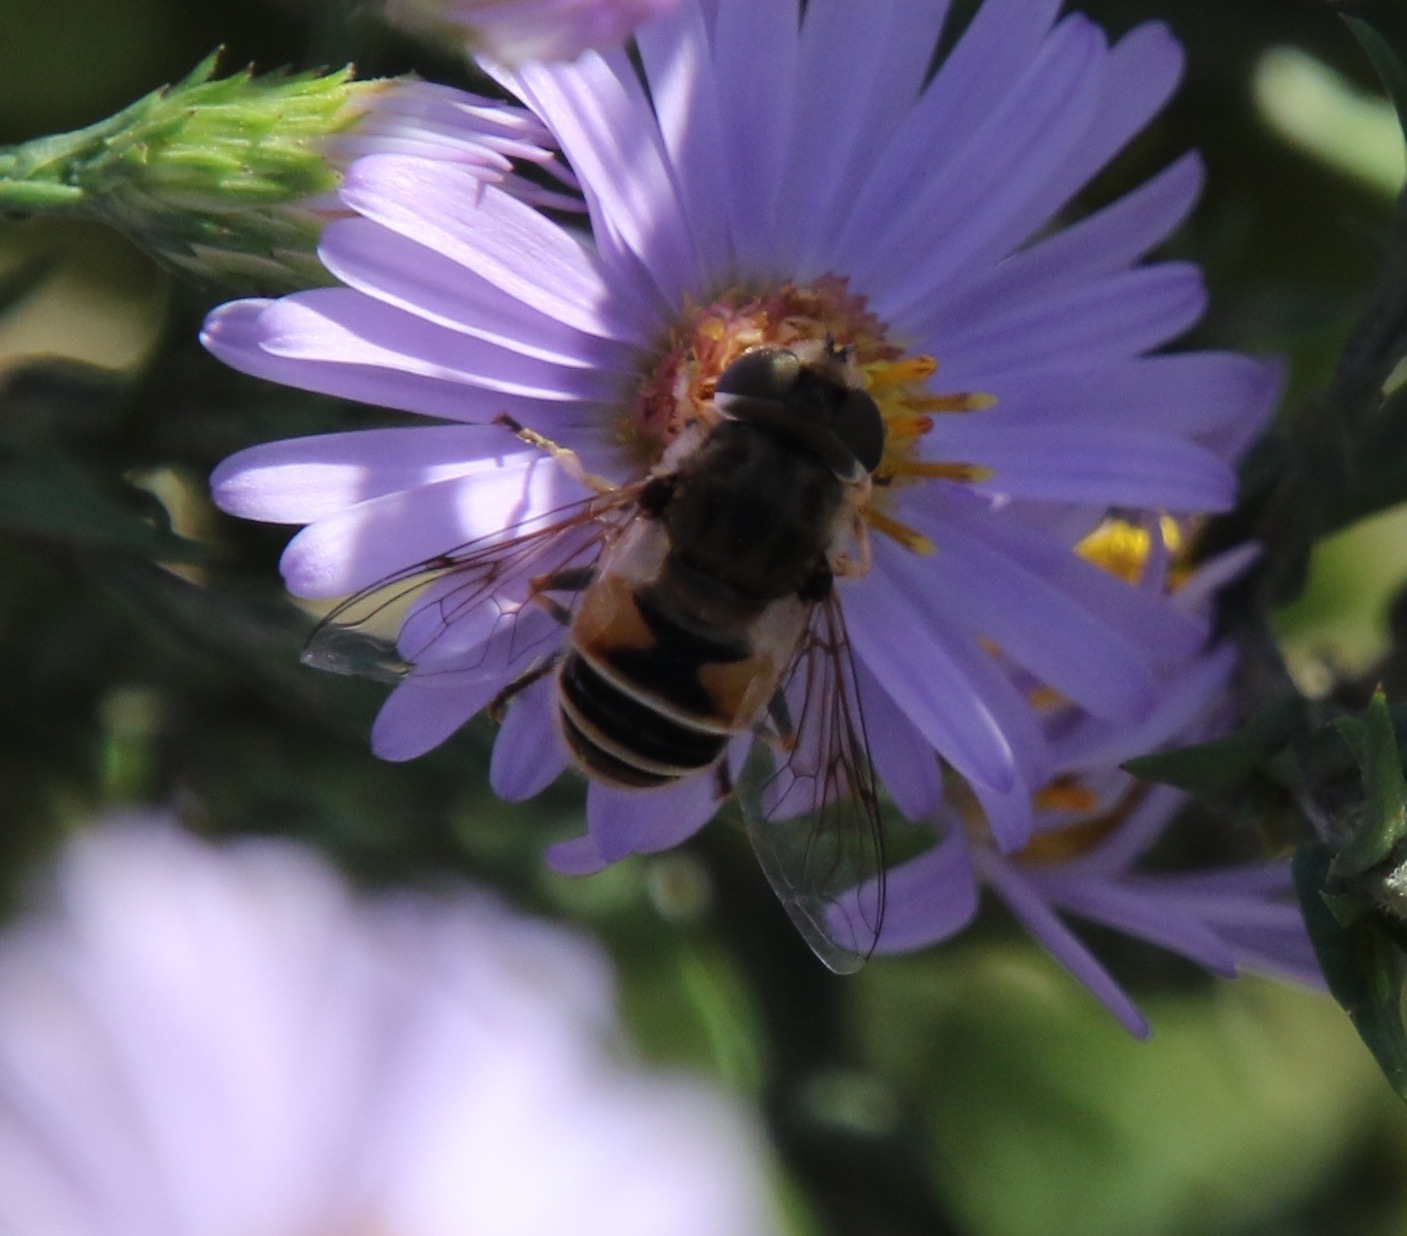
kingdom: Animalia
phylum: Arthropoda
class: Insecta
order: Diptera
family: Syrphidae
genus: Eristalis
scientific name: Eristalis arbustorum
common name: Hover fly
